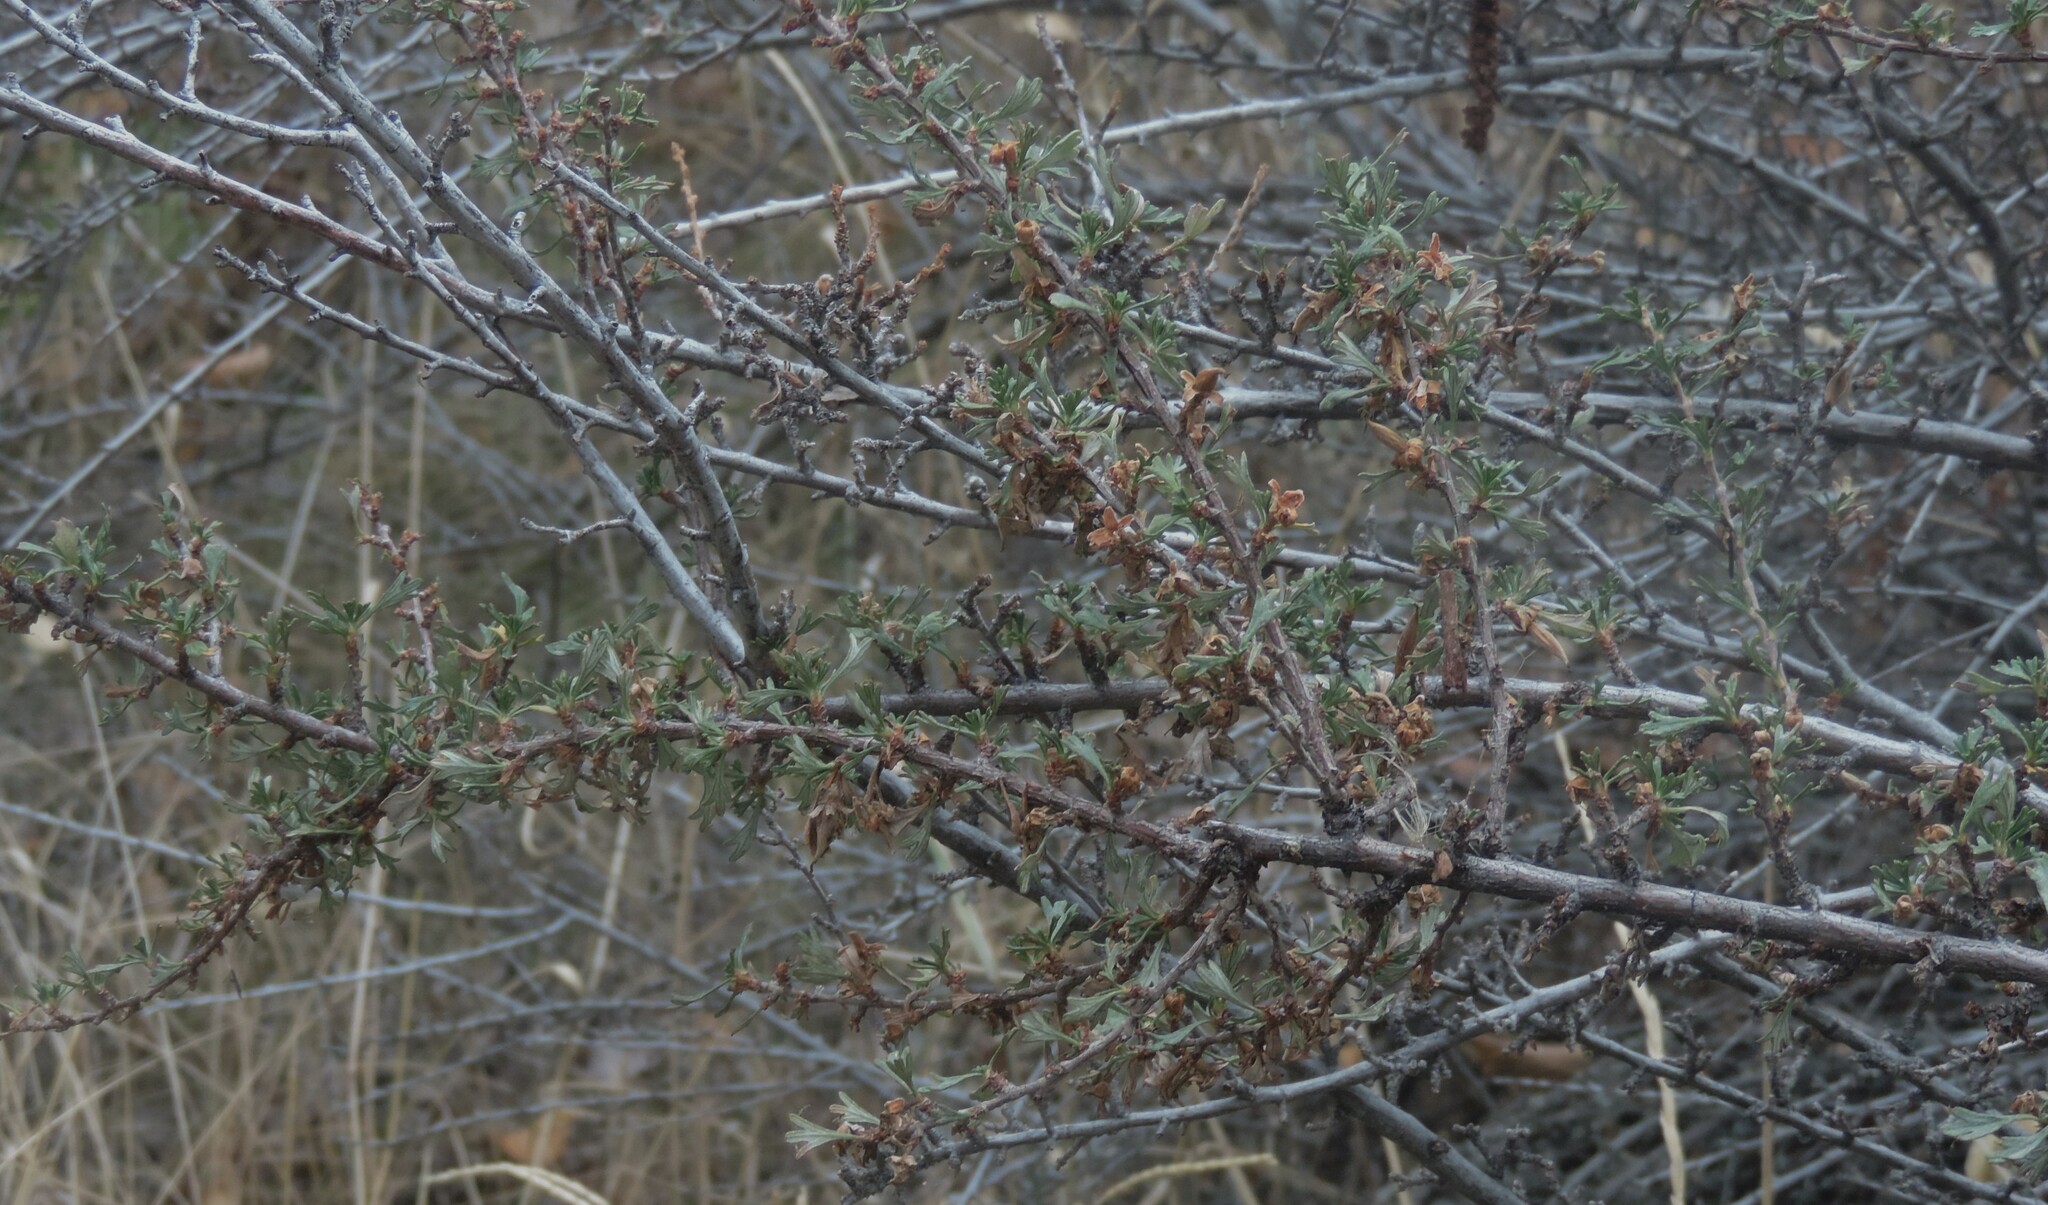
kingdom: Plantae
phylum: Tracheophyta
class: Magnoliopsida
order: Rosales
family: Rosaceae
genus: Purshia
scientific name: Purshia tridentata
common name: Antelope bitterbrush
